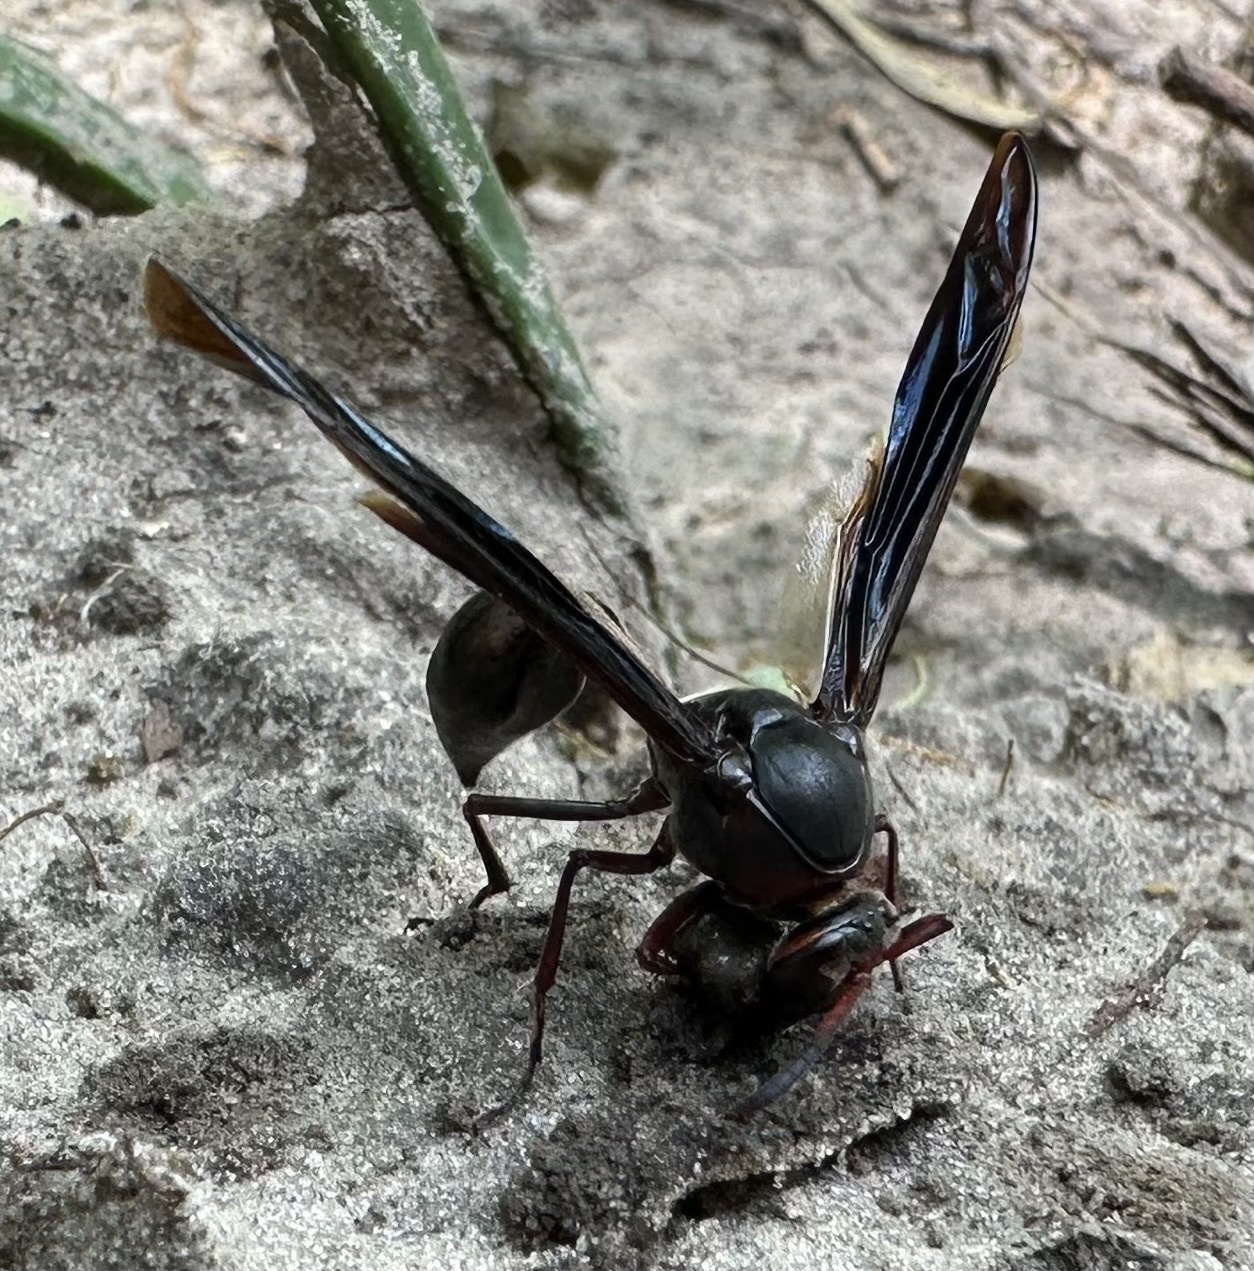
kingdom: Animalia
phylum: Arthropoda
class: Insecta
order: Hymenoptera
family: Eumenidae
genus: Delta
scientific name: Delta emarginatum
